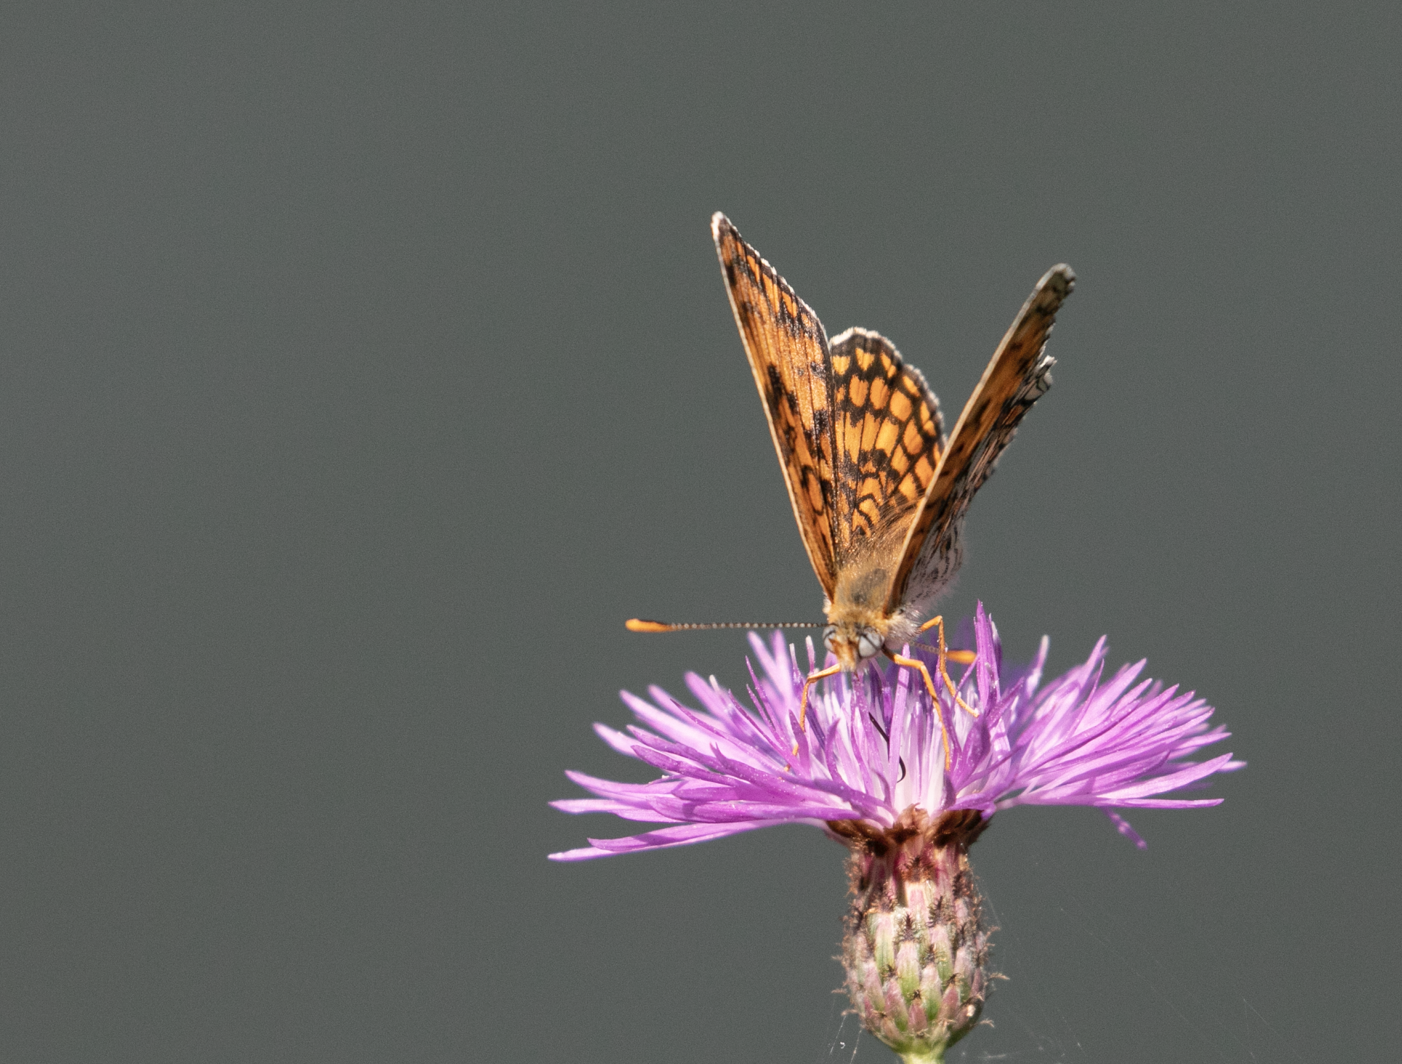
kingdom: Animalia
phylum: Arthropoda
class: Insecta
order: Lepidoptera
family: Nymphalidae
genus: Melitaea
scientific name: Melitaea phoebe
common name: Knapweed fritillary
